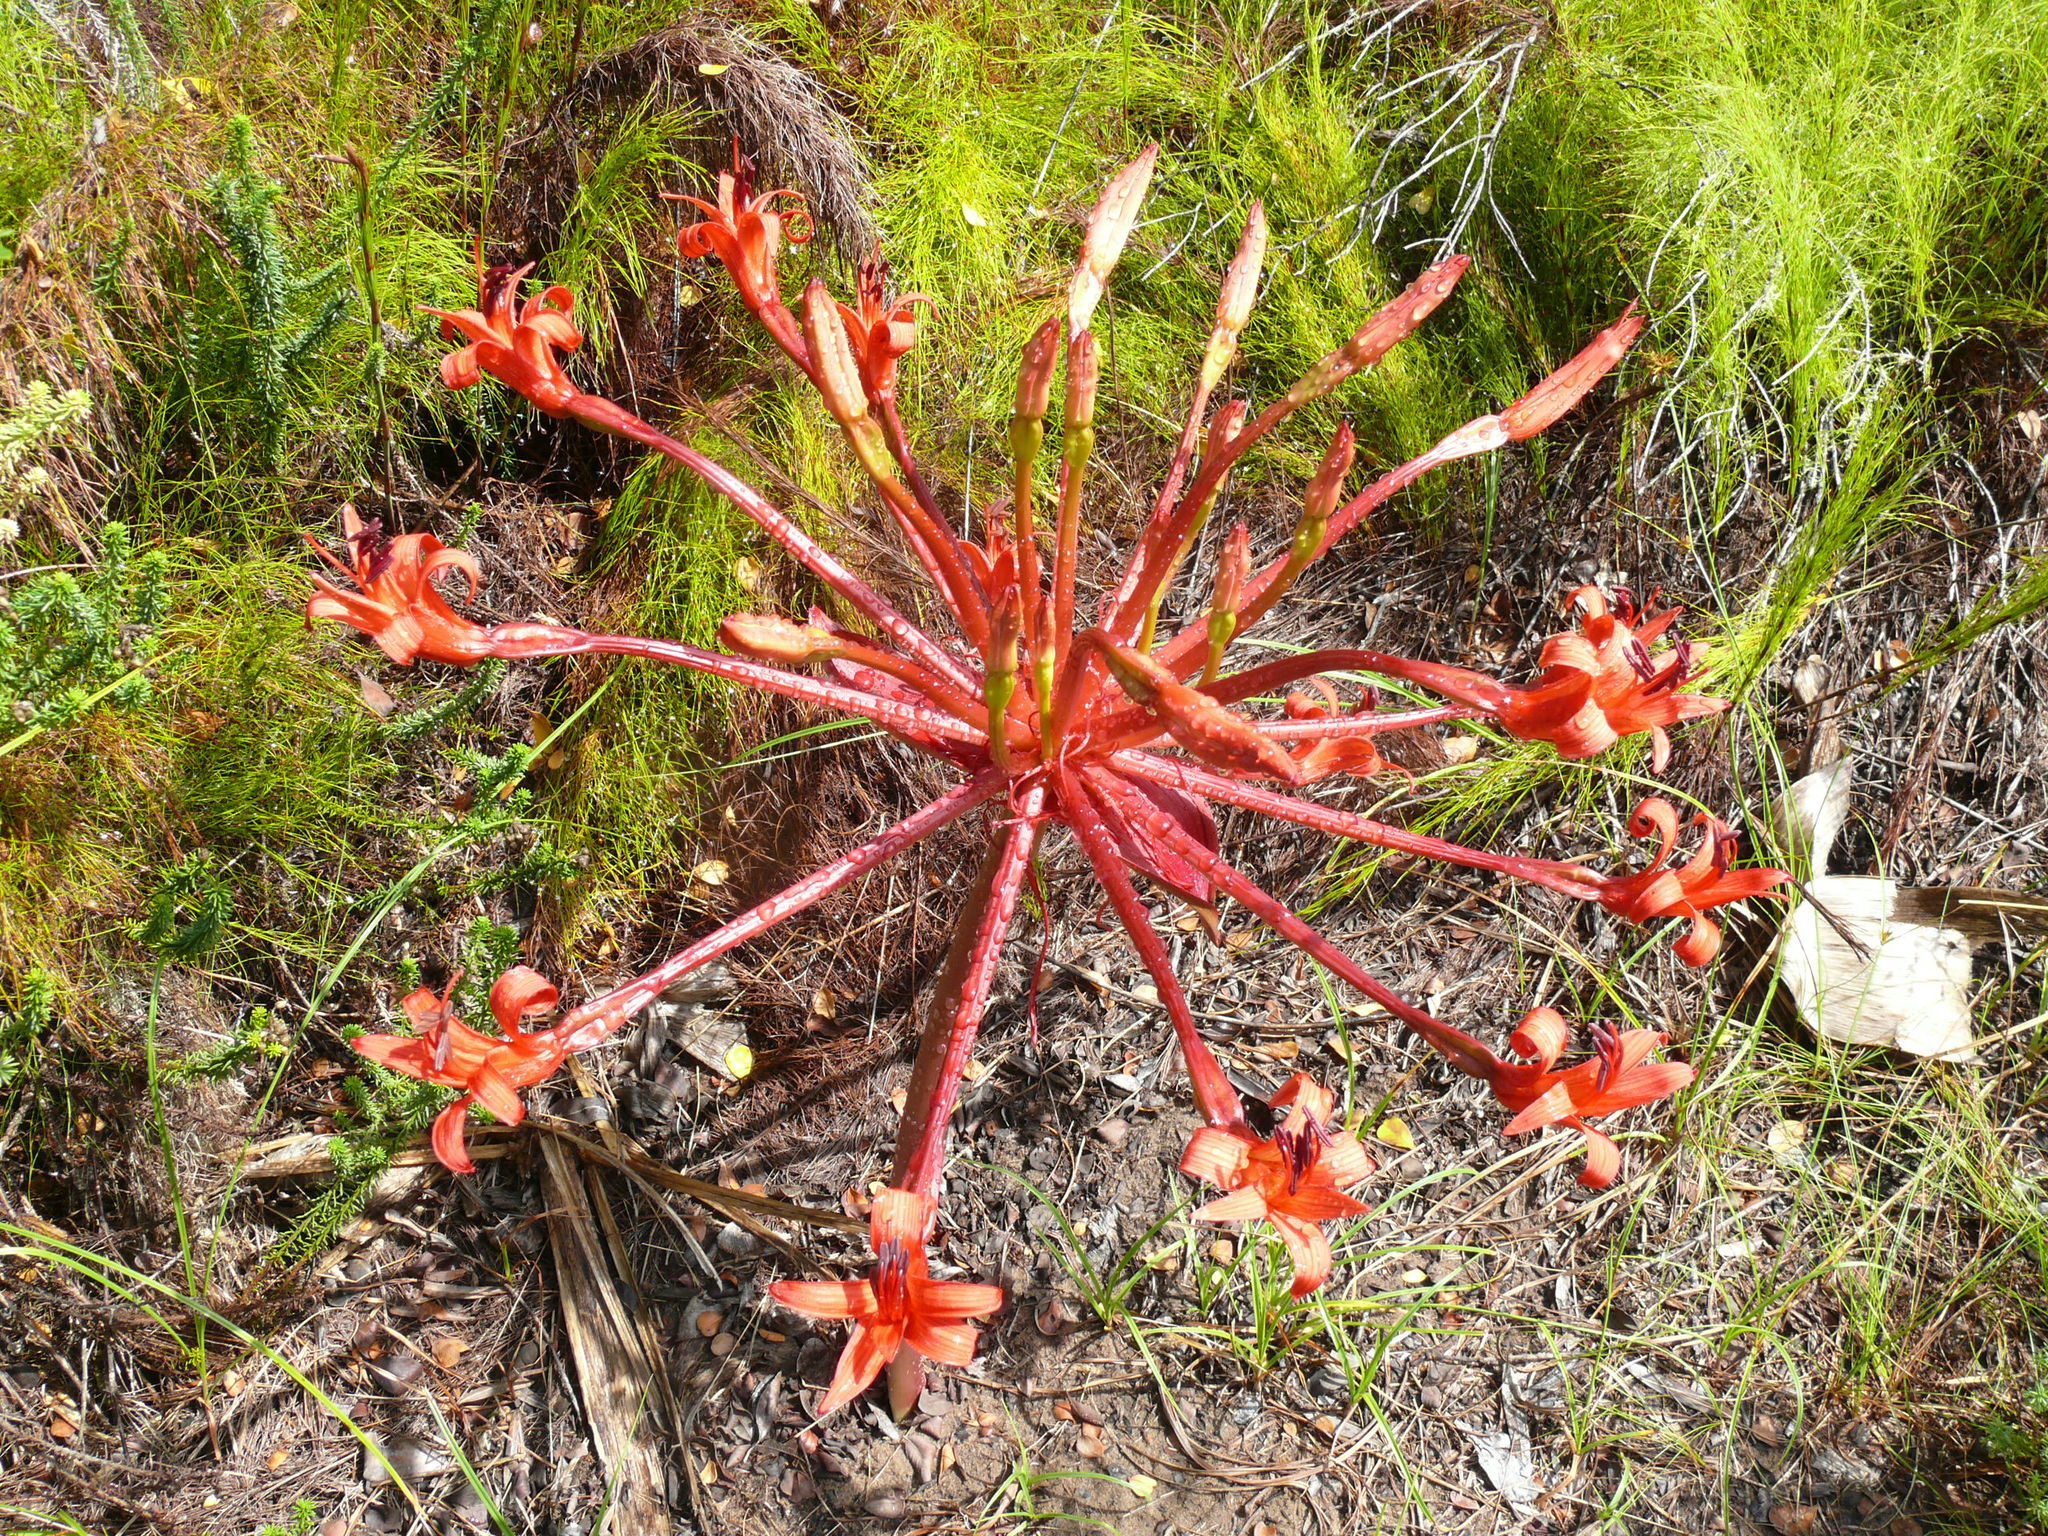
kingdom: Plantae
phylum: Tracheophyta
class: Liliopsida
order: Asparagales
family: Amaryllidaceae
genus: Brunsvigia
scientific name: Brunsvigia orientalis
